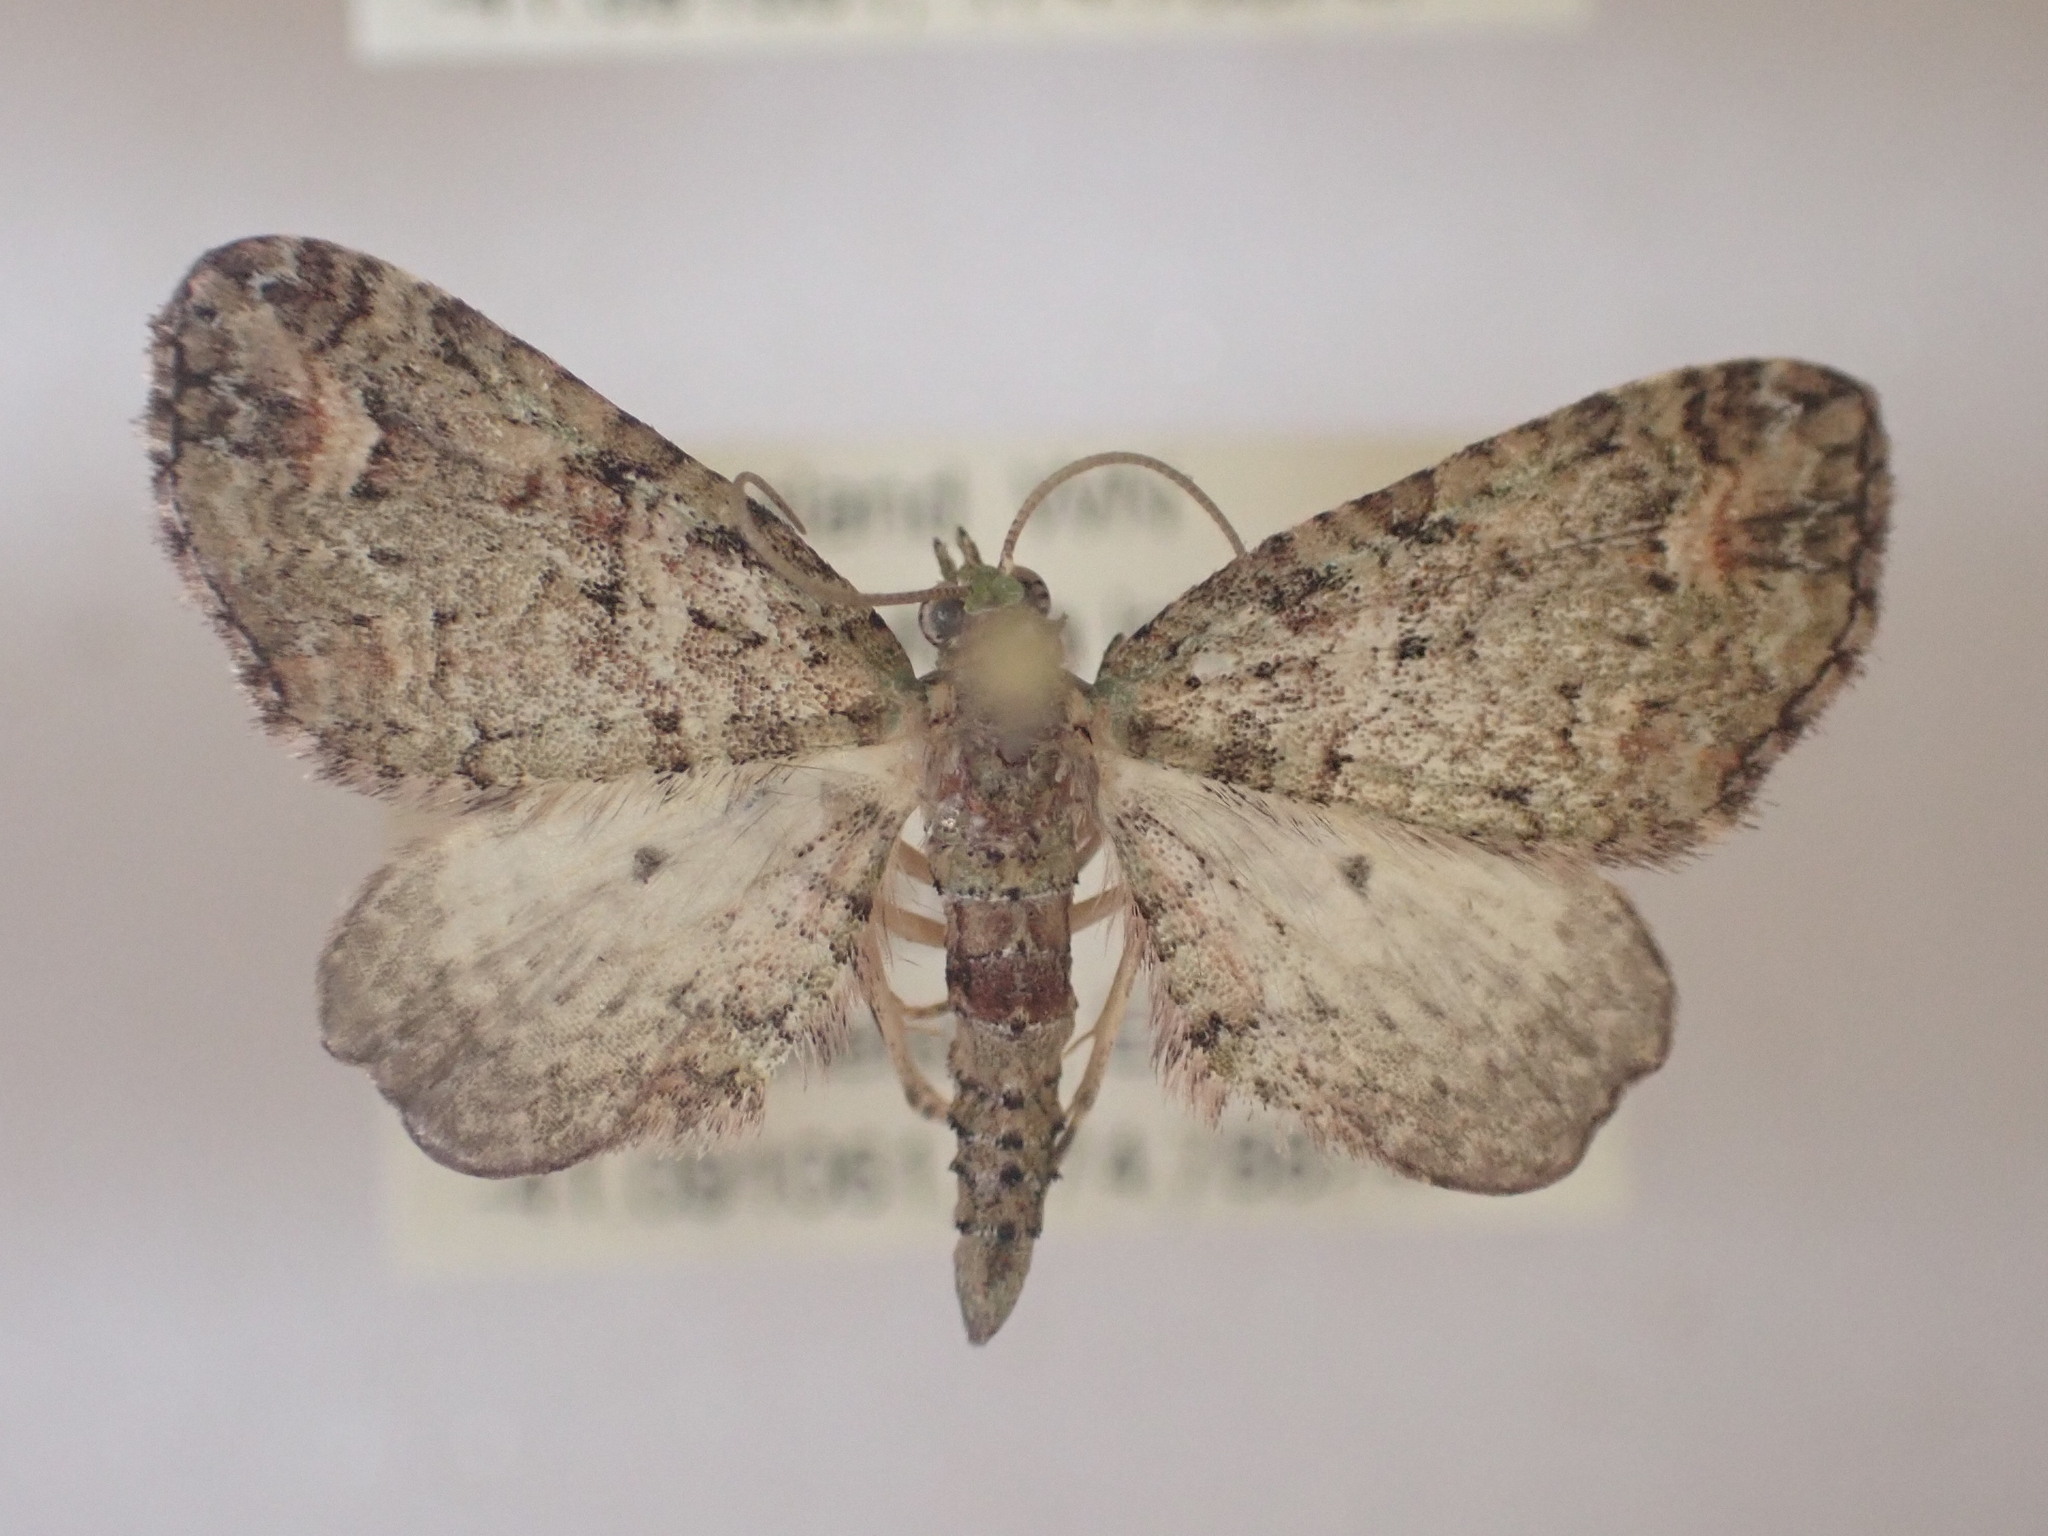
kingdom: Animalia
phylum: Arthropoda
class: Insecta
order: Lepidoptera
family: Geometridae
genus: Idaea
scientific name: Idaea mutanda
